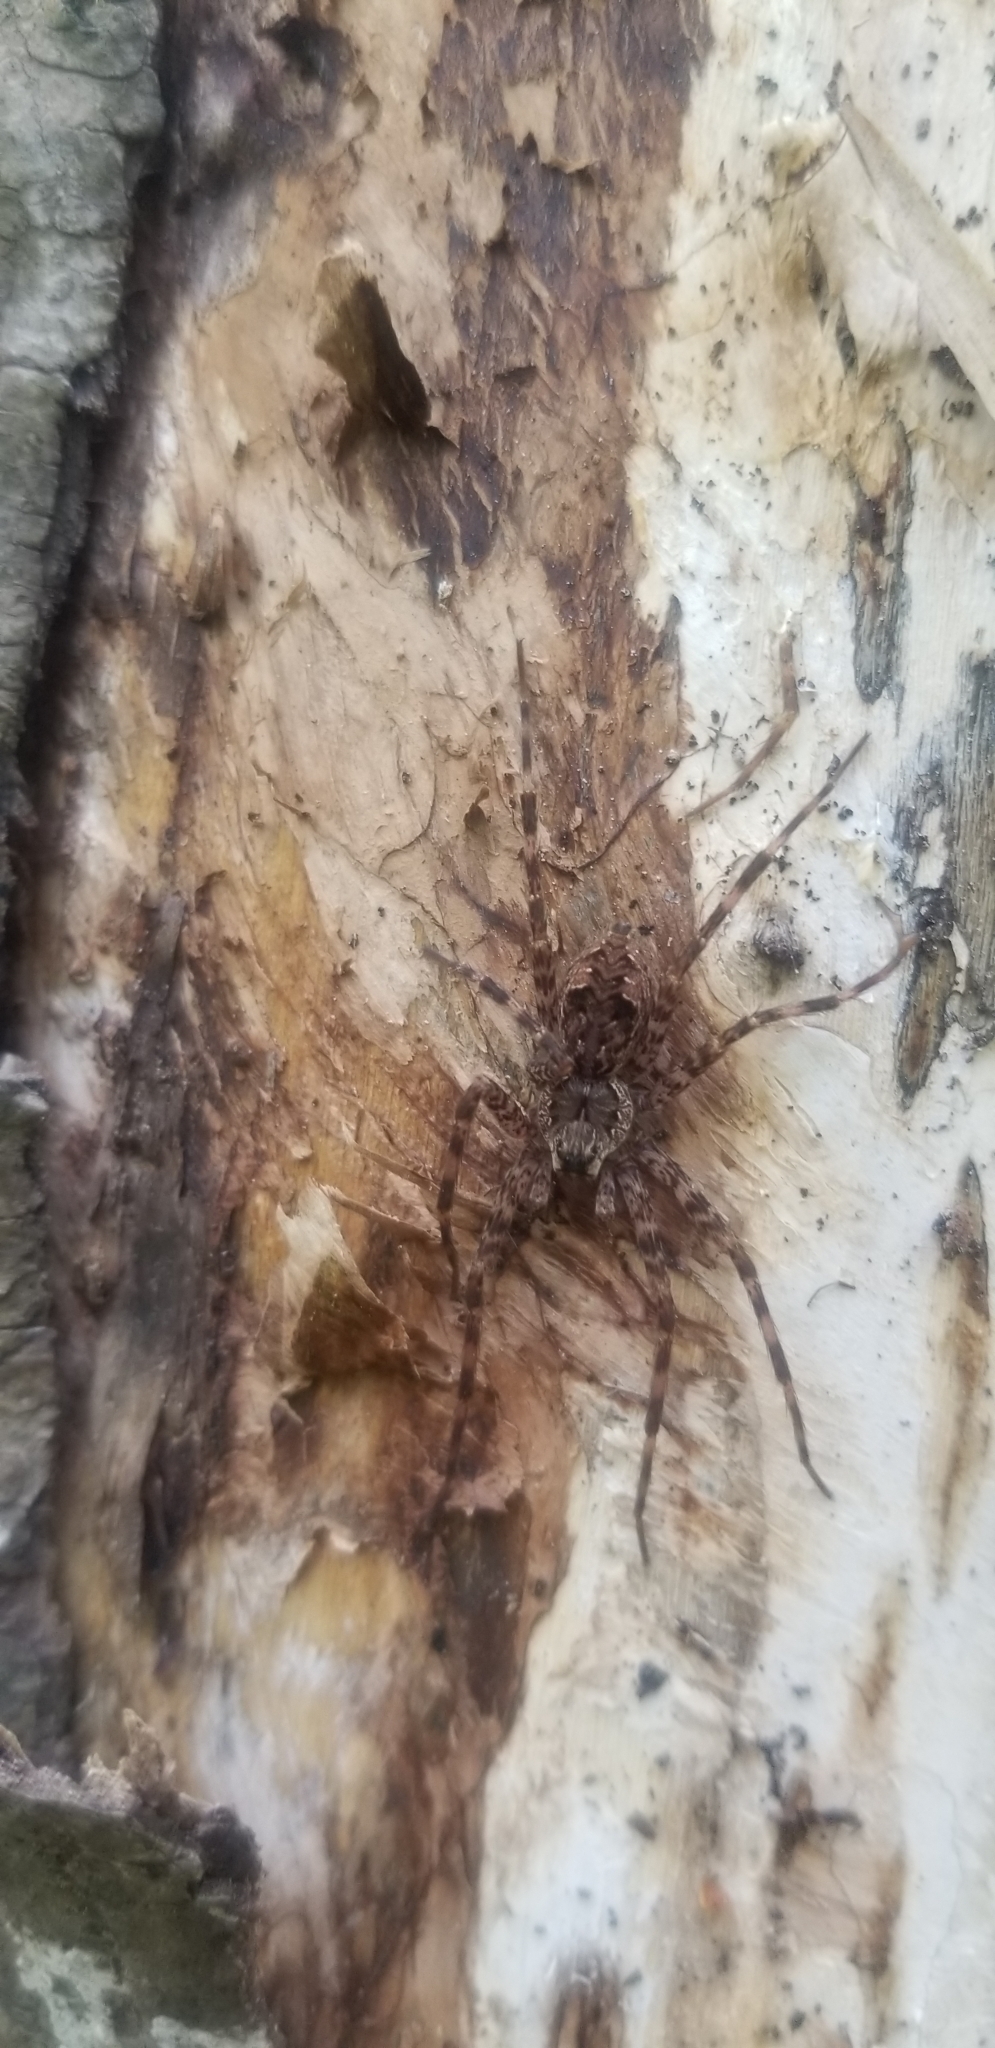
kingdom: Animalia
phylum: Arthropoda
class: Arachnida
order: Araneae
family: Pisauridae
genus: Dolomedes
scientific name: Dolomedes tenebrosus
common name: Dark fishing spider
